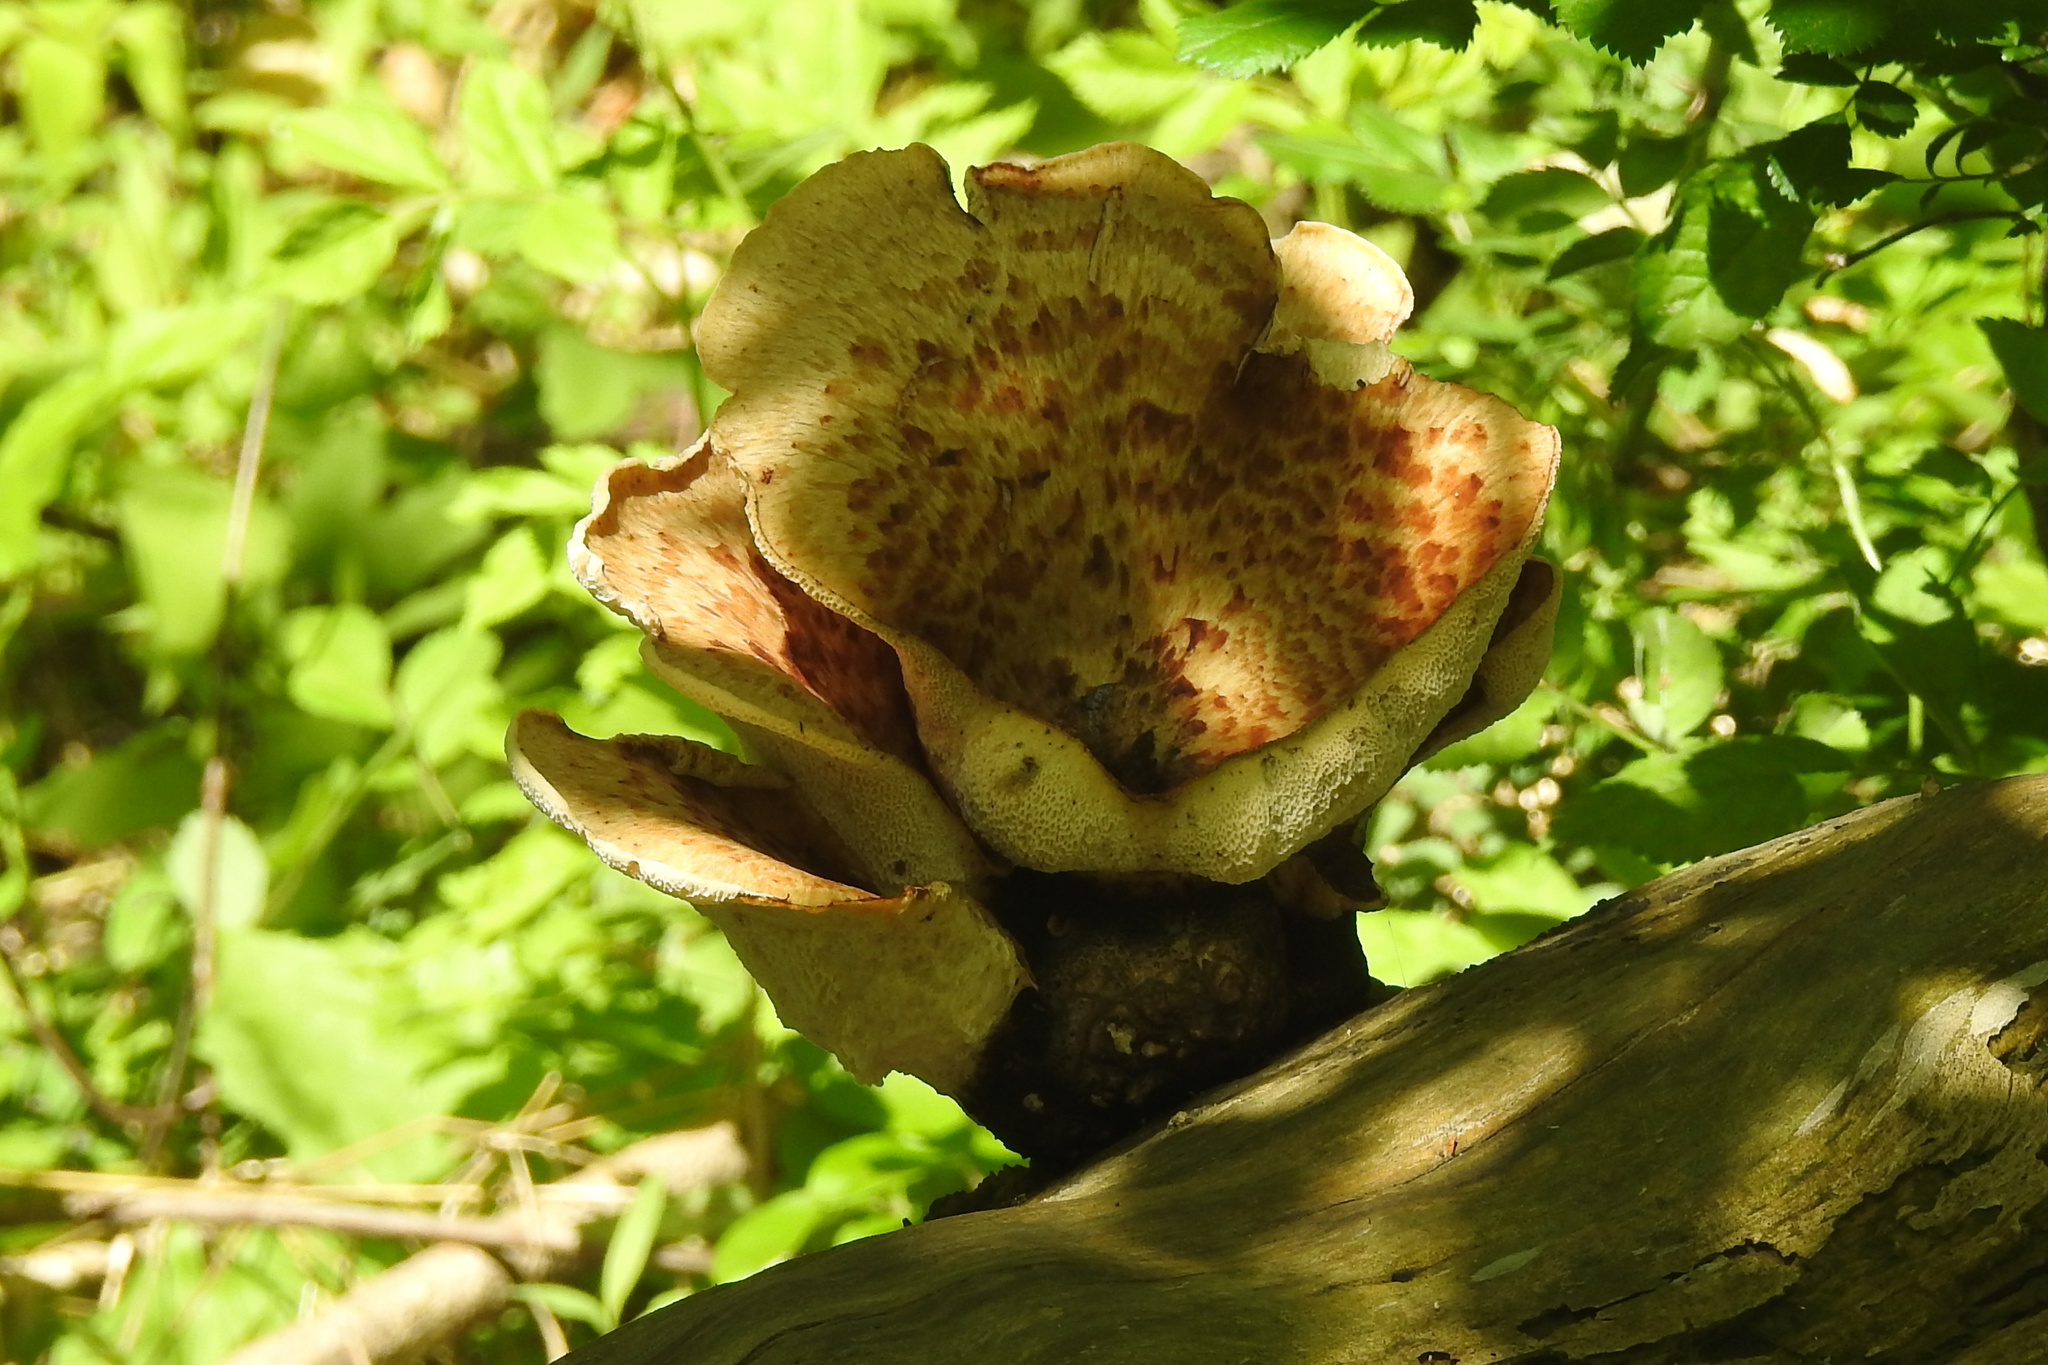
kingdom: Fungi
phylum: Basidiomycota
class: Agaricomycetes
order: Polyporales
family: Polyporaceae
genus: Cerioporus
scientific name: Cerioporus squamosus
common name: Dryad's saddle
